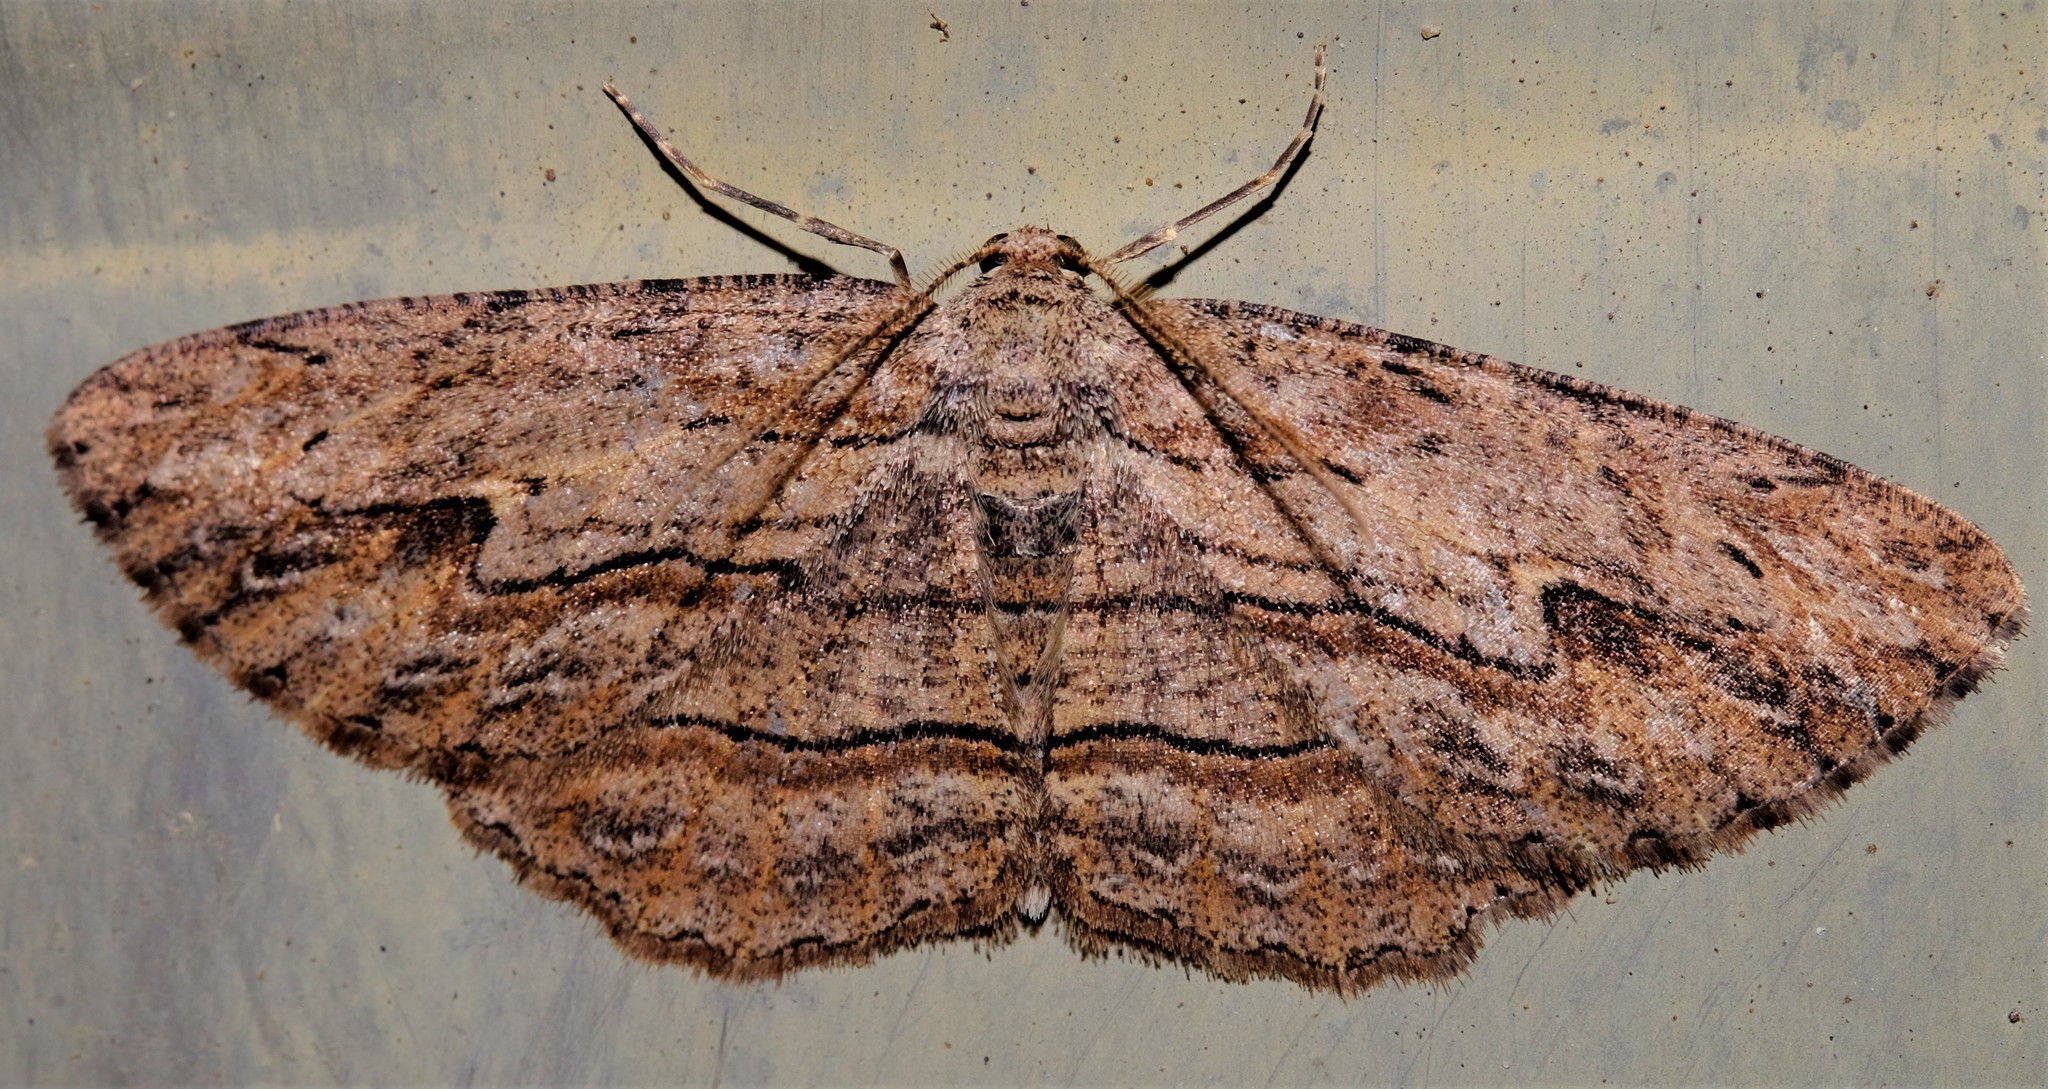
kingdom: Animalia
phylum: Arthropoda
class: Insecta
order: Lepidoptera
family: Geometridae
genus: Ectropis
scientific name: Ectropis excursaria
